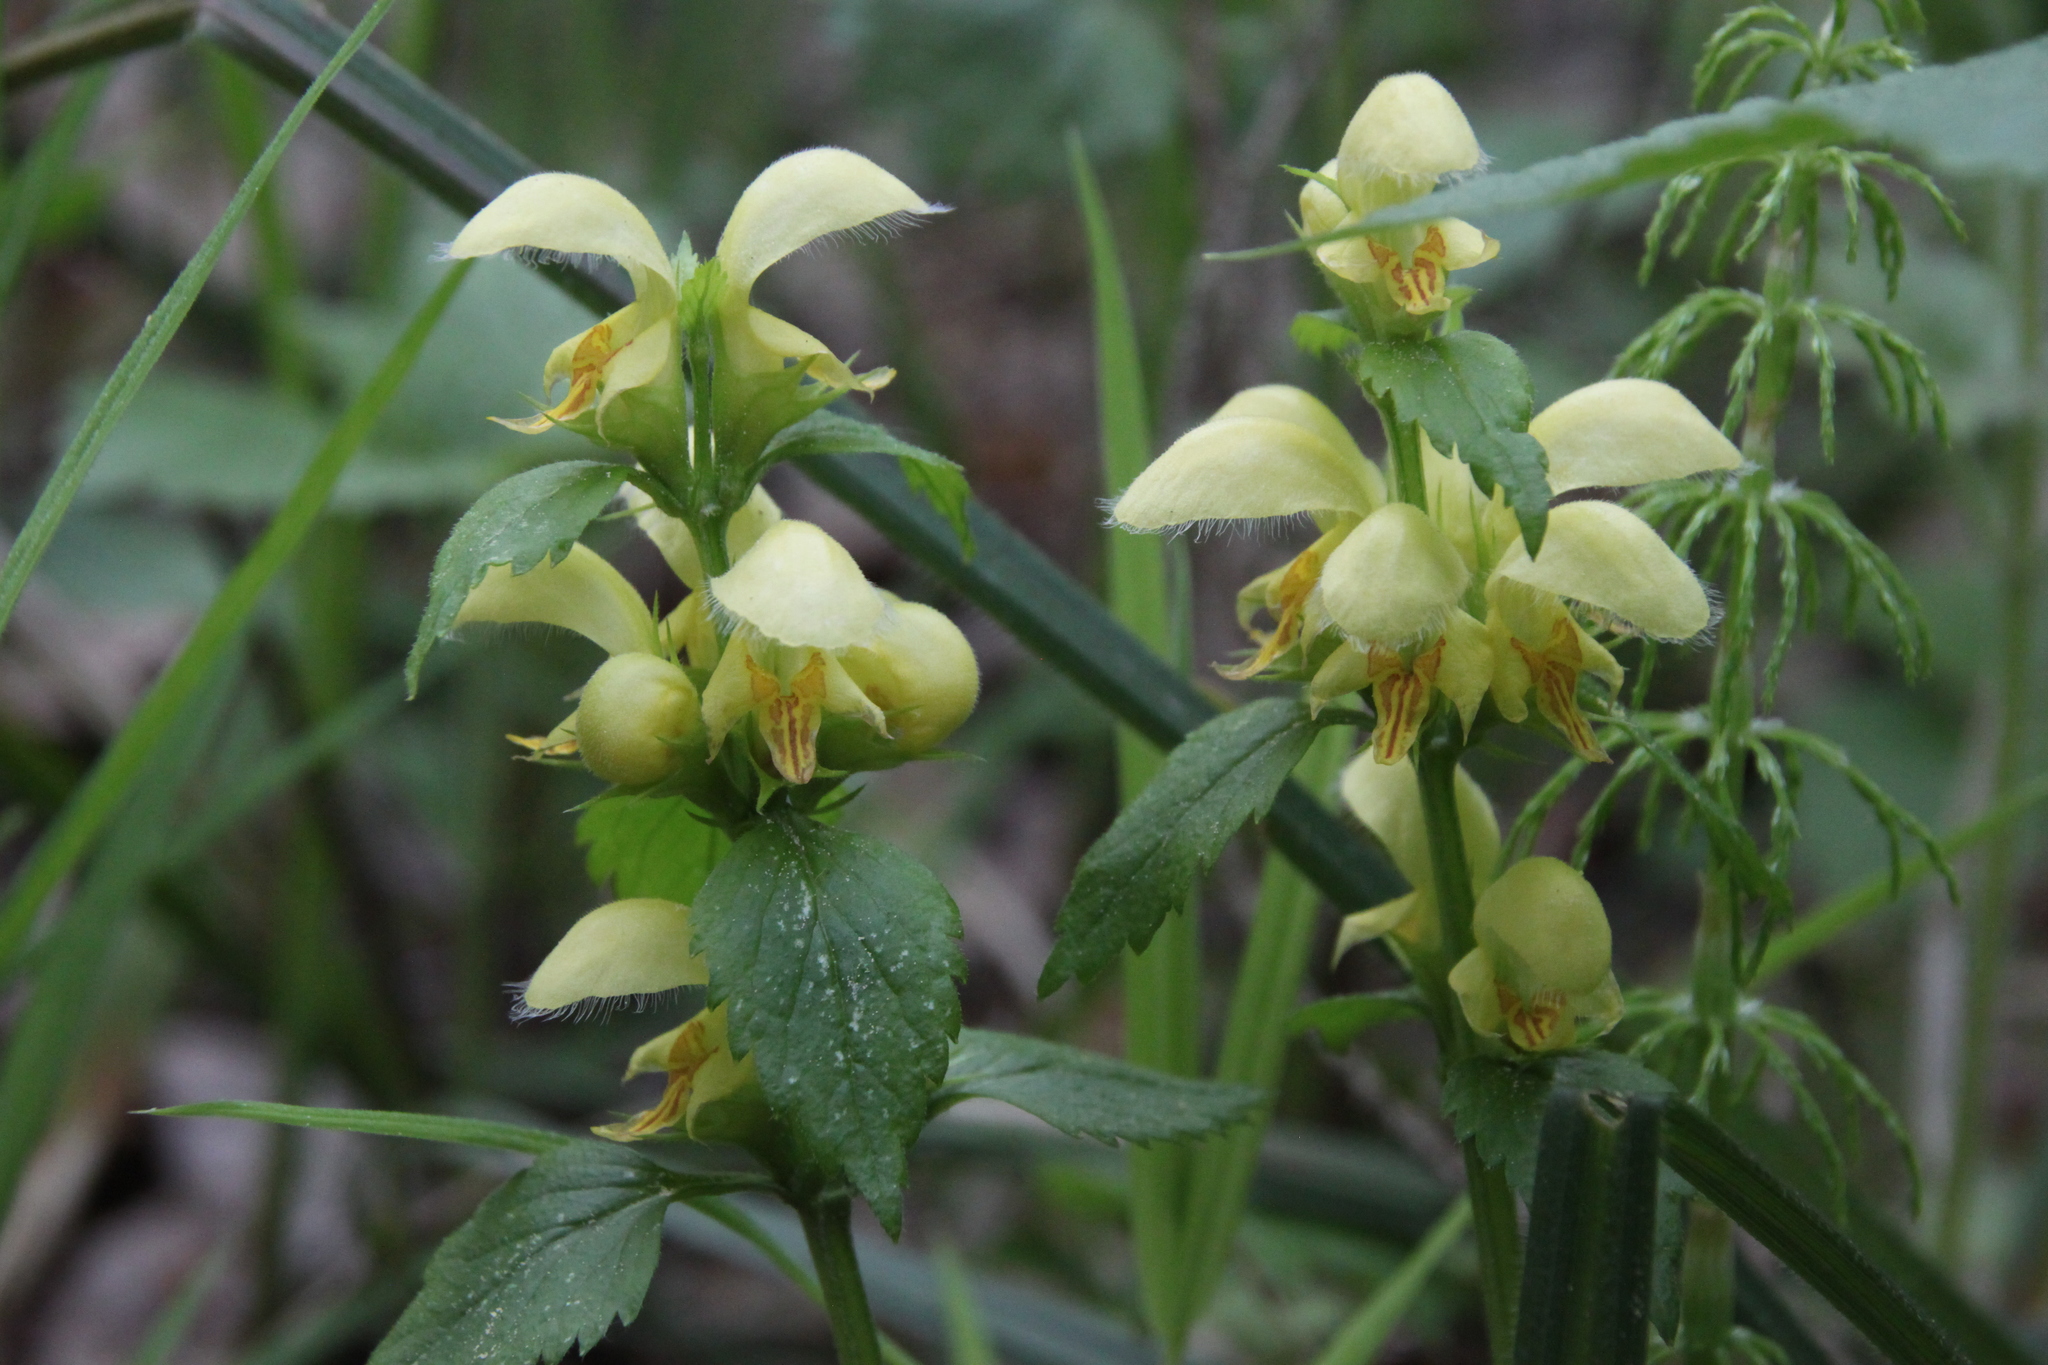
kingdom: Plantae
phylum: Tracheophyta
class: Magnoliopsida
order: Lamiales
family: Lamiaceae
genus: Lamium
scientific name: Lamium galeobdolon
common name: Yellow archangel
